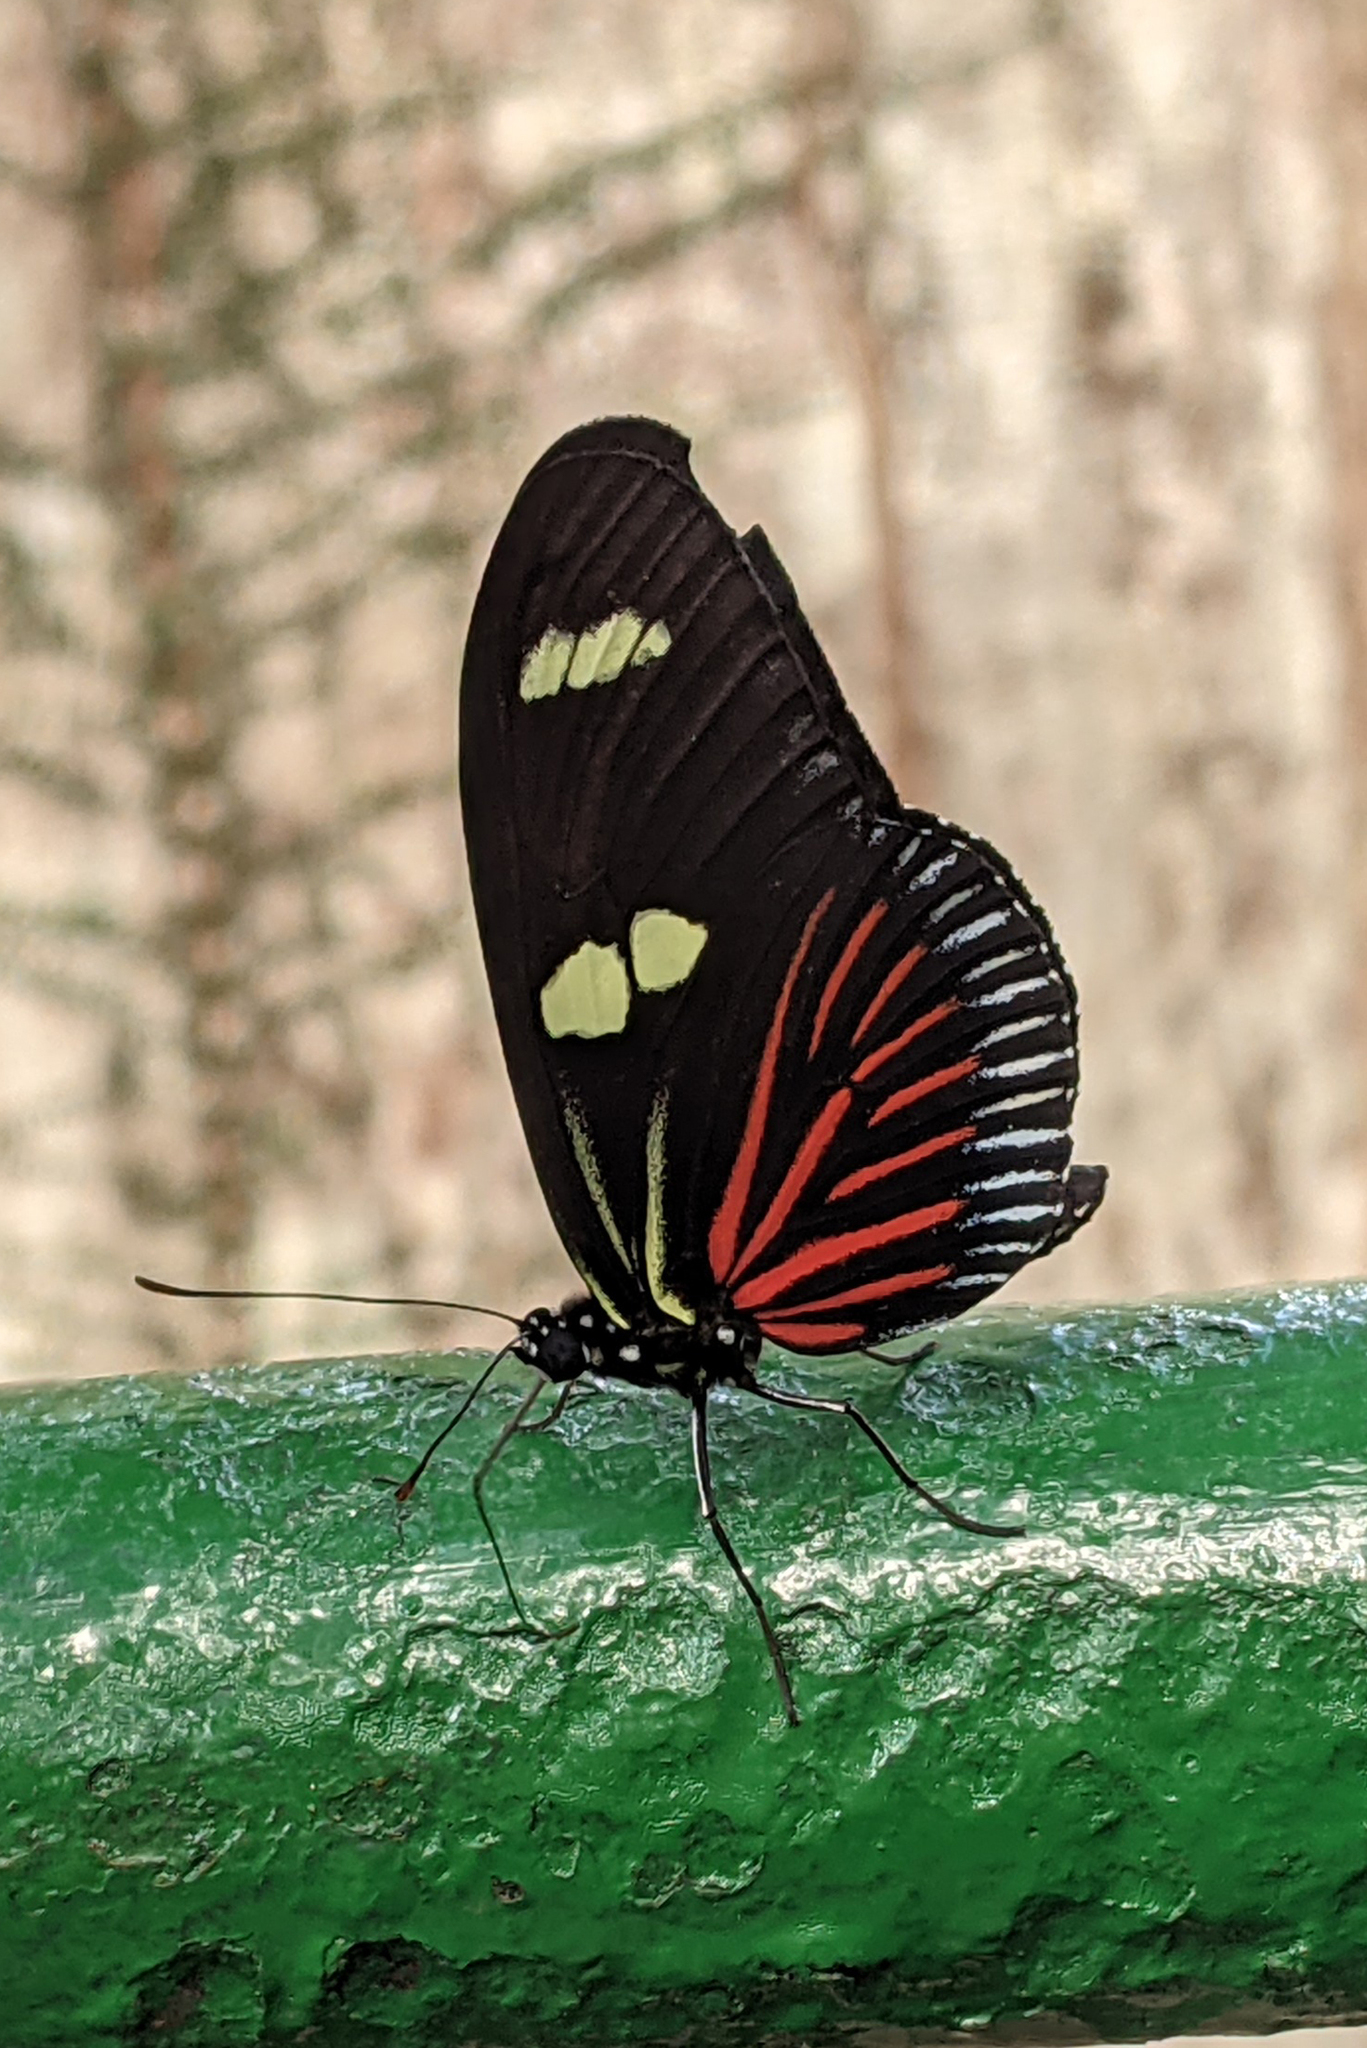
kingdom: Animalia
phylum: Arthropoda
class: Insecta
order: Lepidoptera
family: Nymphalidae
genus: Heliconius
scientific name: Heliconius Neruda metharme
